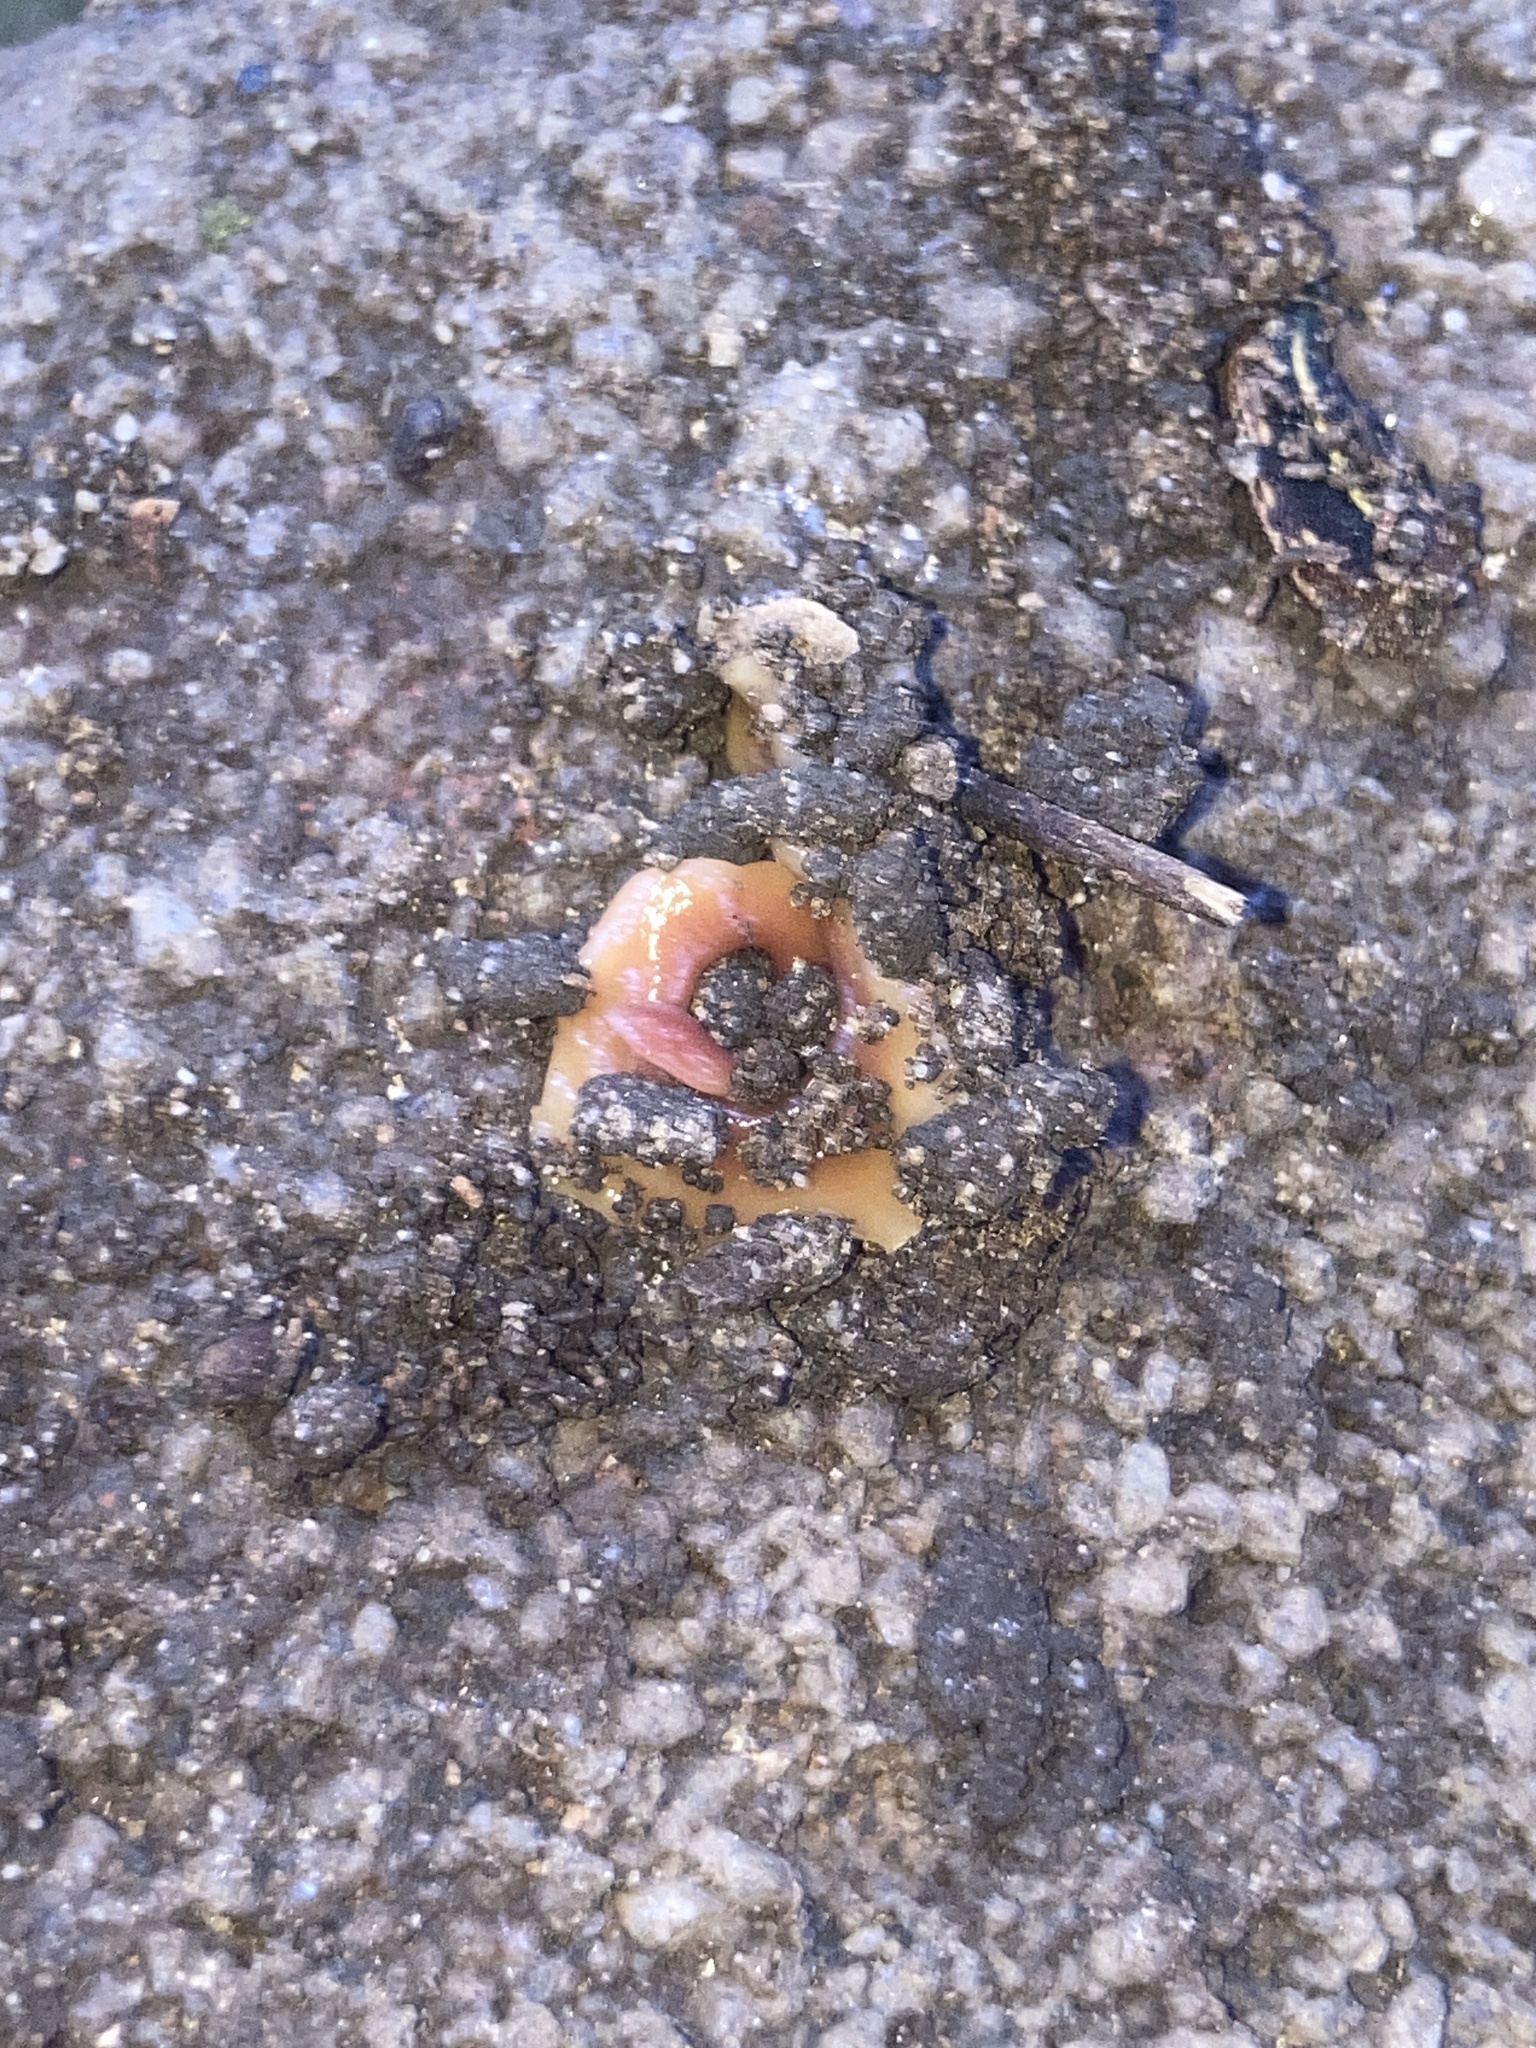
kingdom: Animalia
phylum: Platyhelminthes
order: Tricladida
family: Geoplanidae
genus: Australoplana
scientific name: Australoplana alba
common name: Australian flatworm
